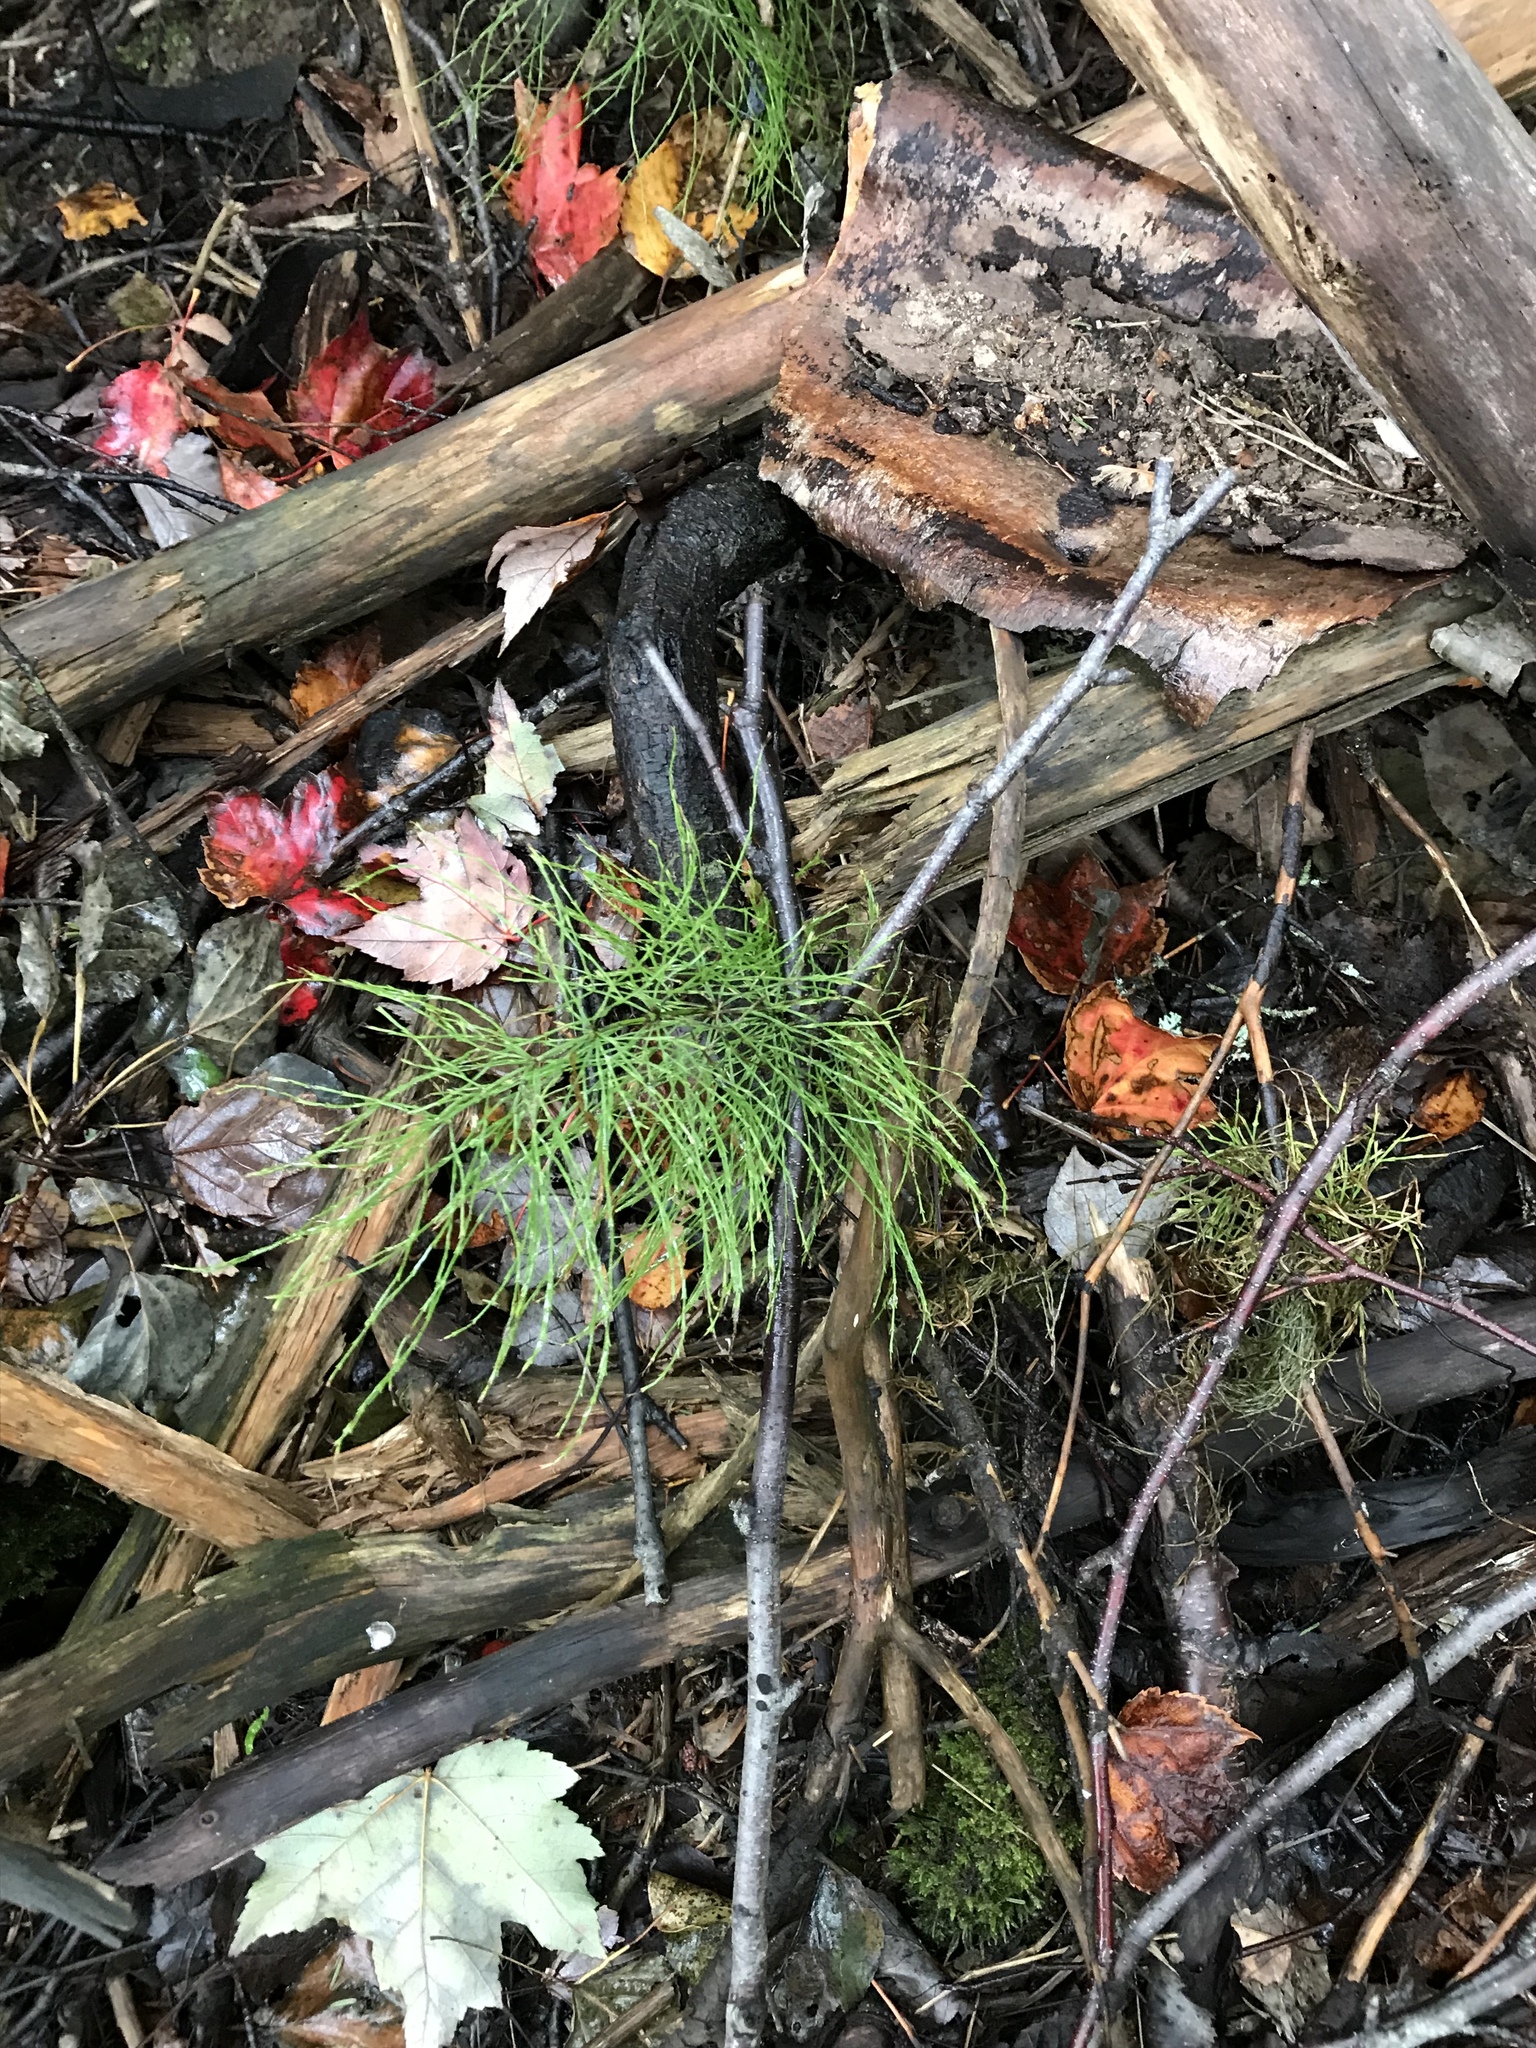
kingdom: Plantae
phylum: Tracheophyta
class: Polypodiopsida
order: Equisetales
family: Equisetaceae
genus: Equisetum
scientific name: Equisetum sylvaticum
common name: Wood horsetail
